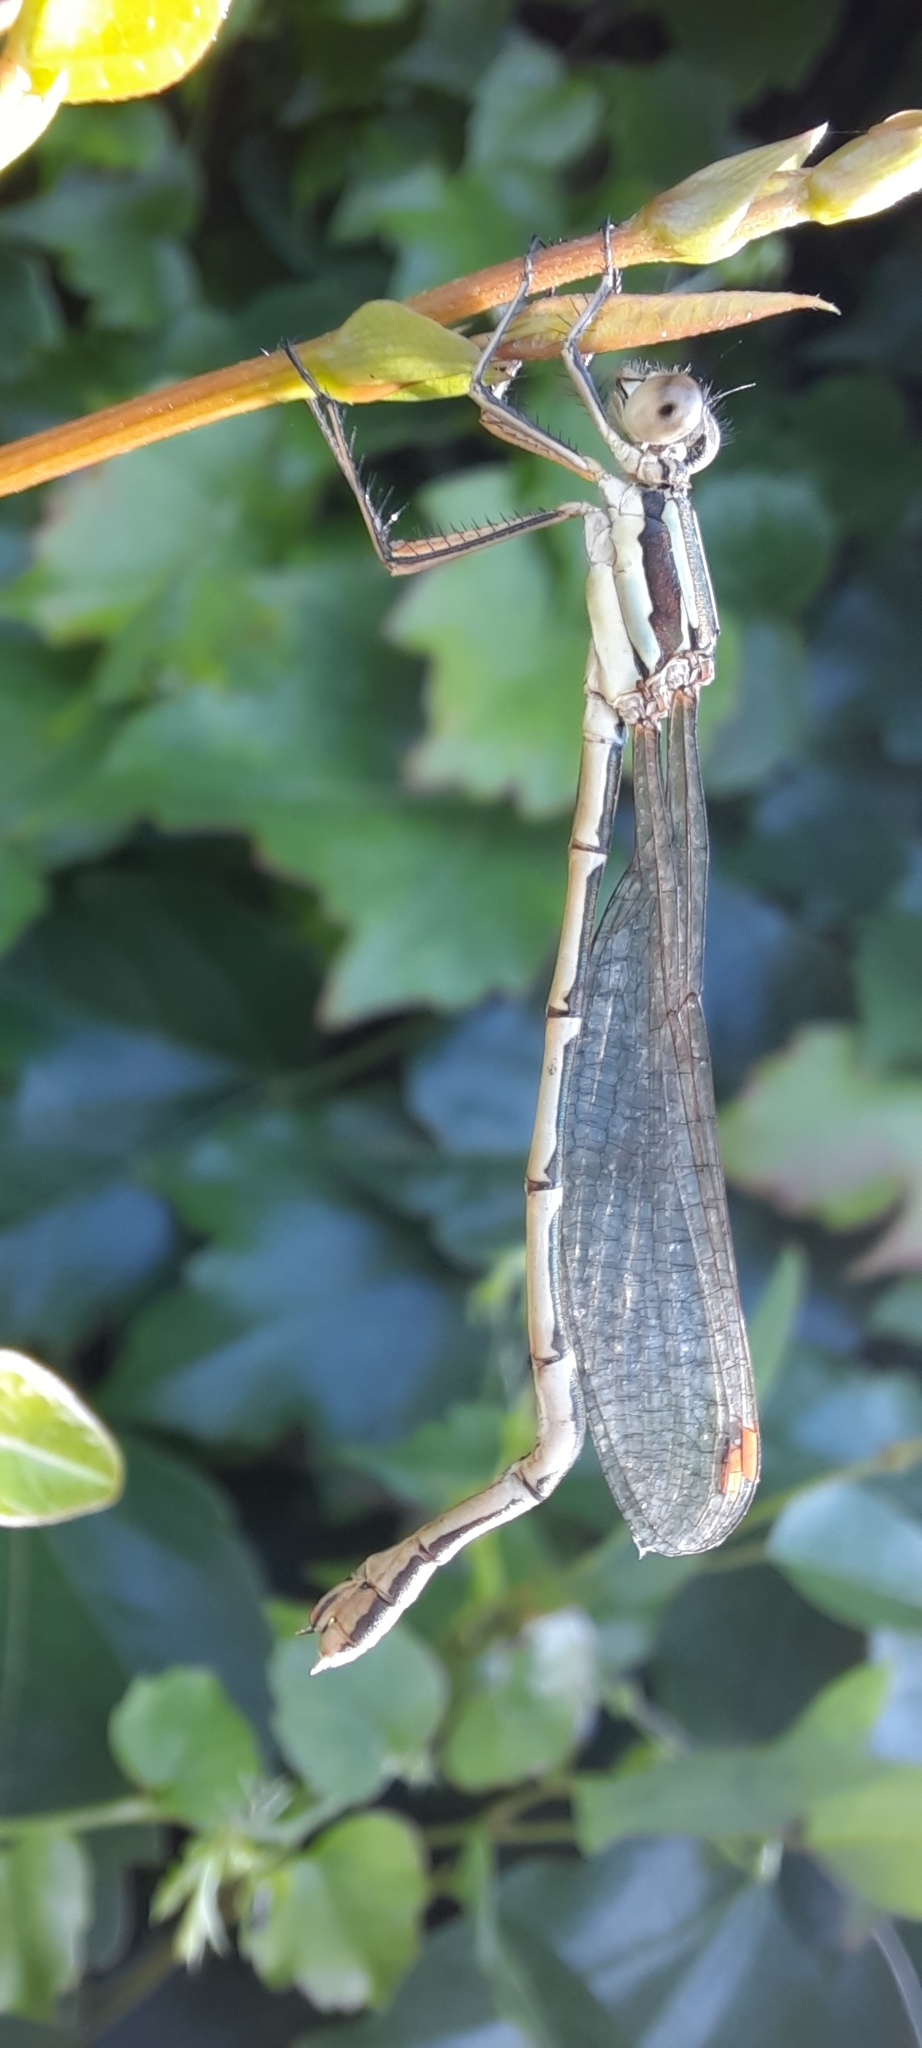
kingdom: Animalia
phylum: Arthropoda
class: Insecta
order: Odonata
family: Lestidae
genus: Austrolestes
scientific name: Austrolestes analis
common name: Slender ringtail
